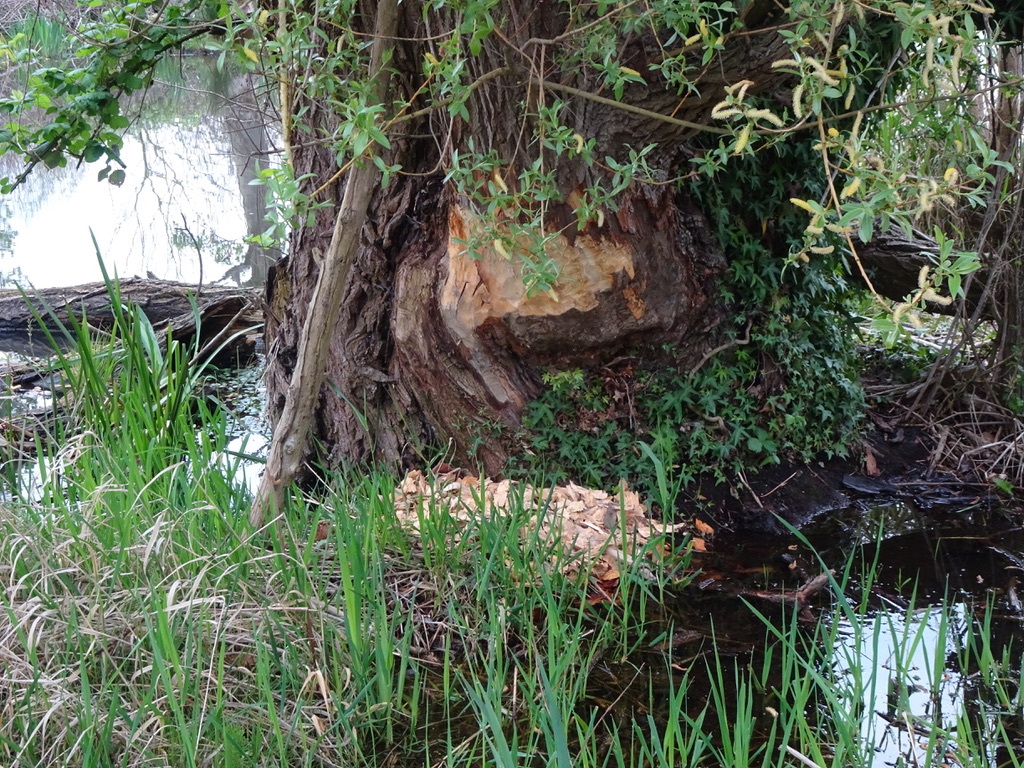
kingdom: Animalia
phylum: Chordata
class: Mammalia
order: Rodentia
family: Castoridae
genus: Castor
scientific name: Castor canadensis
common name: American beaver
